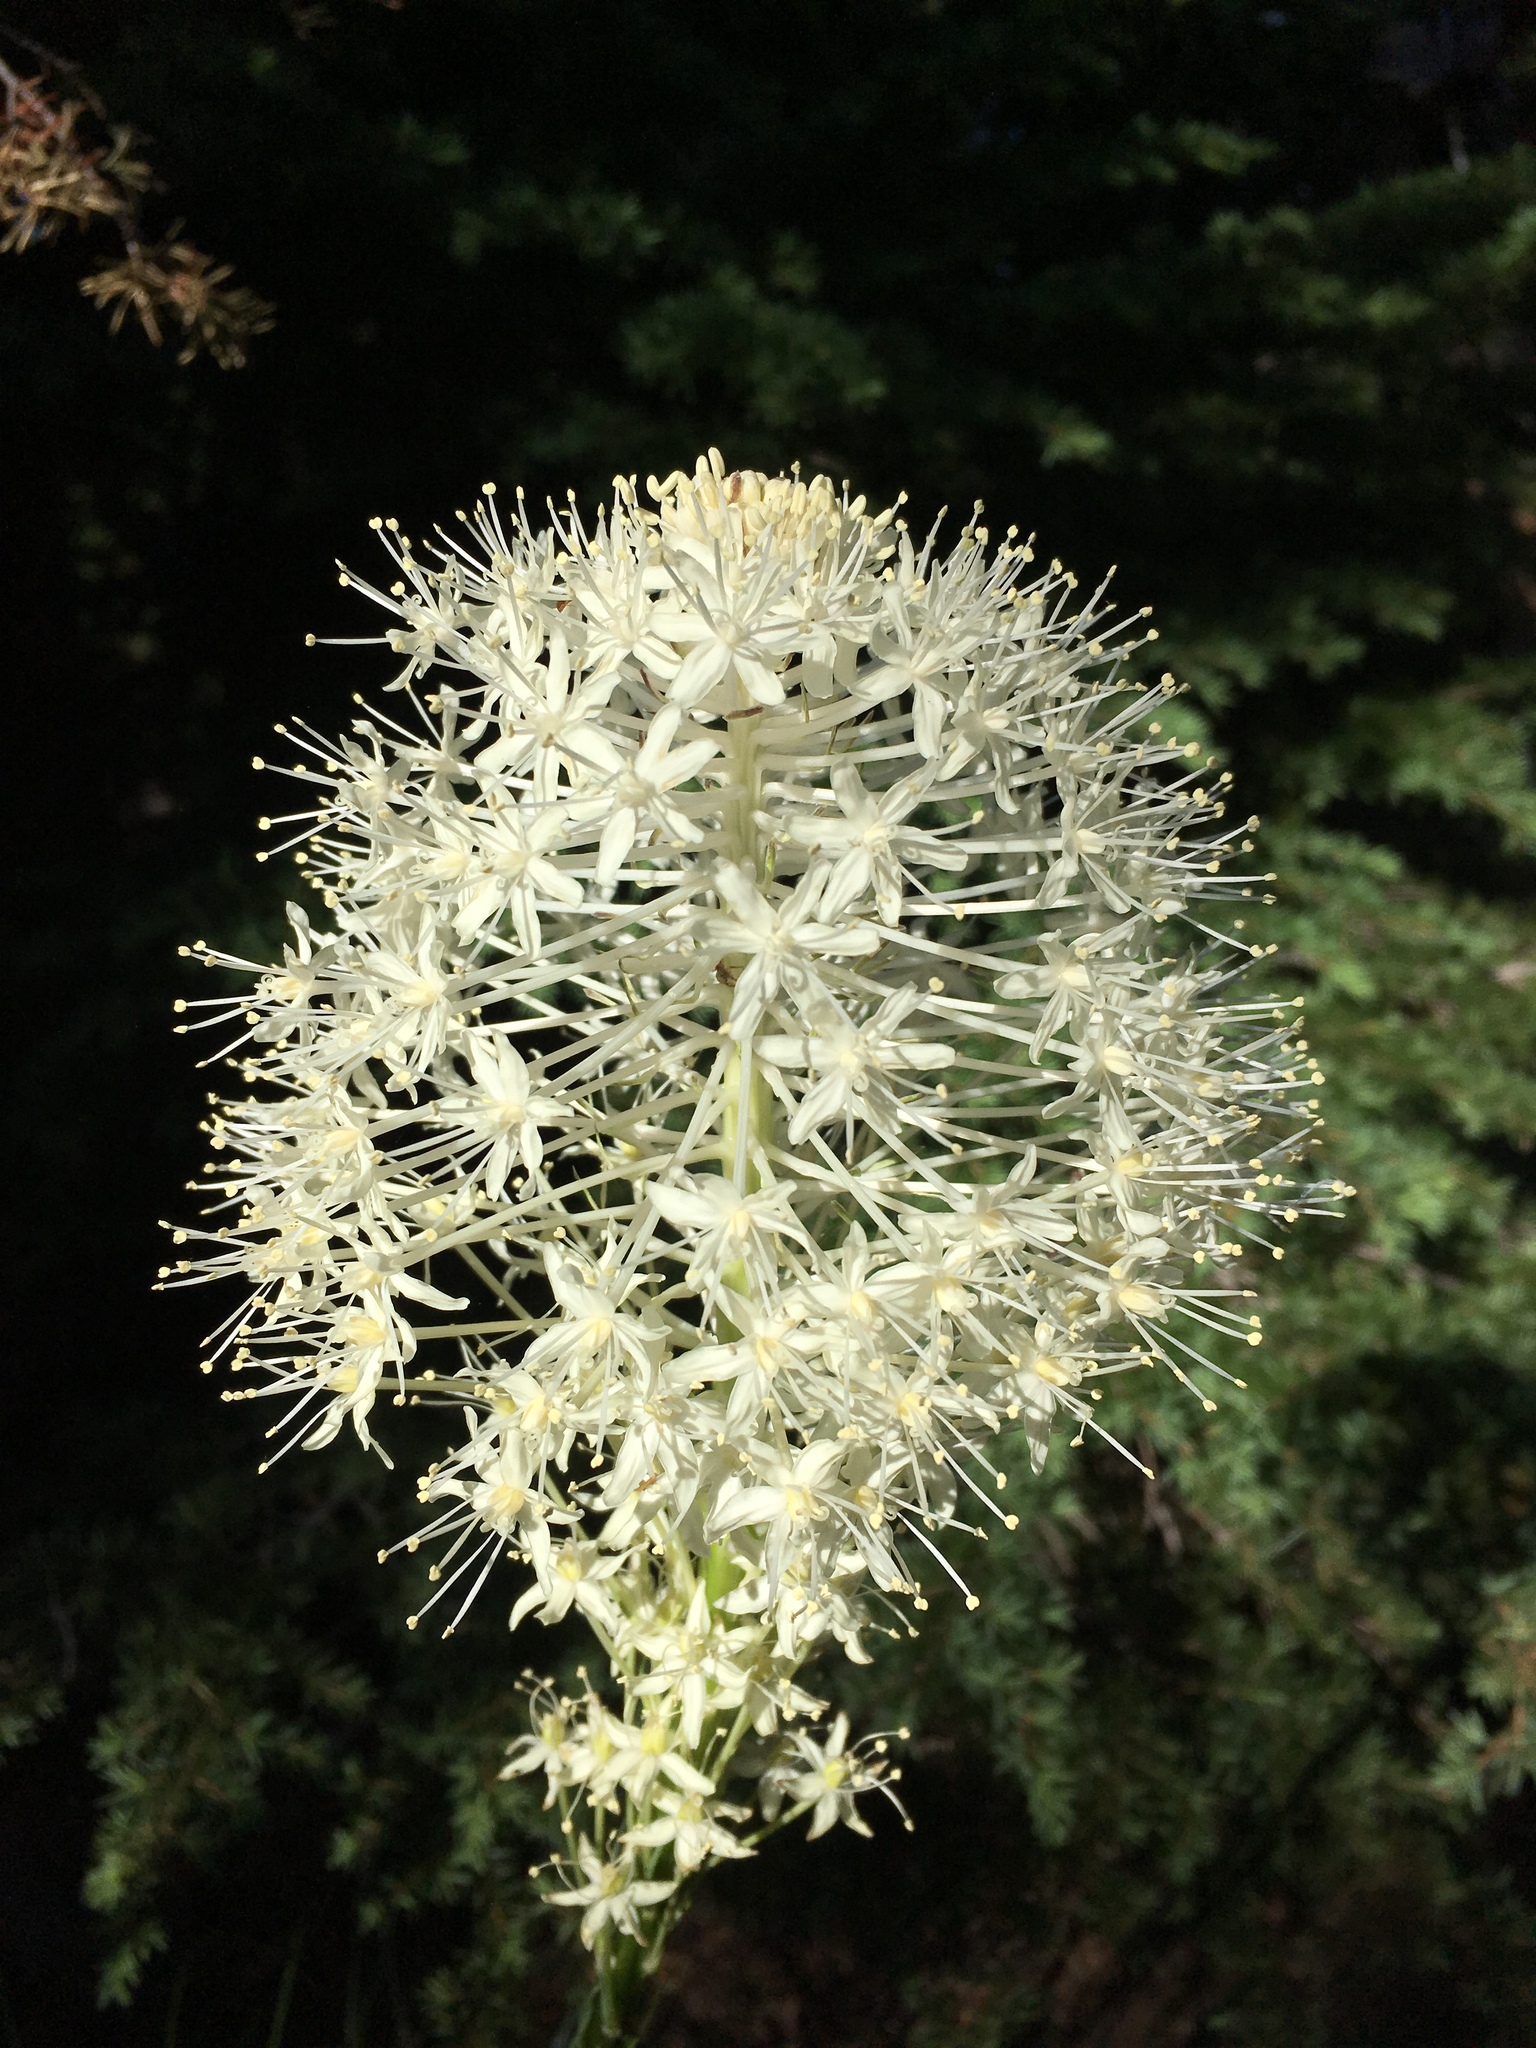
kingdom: Plantae
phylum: Tracheophyta
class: Liliopsida
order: Liliales
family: Melanthiaceae
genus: Xerophyllum
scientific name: Xerophyllum tenax
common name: Bear-grass
